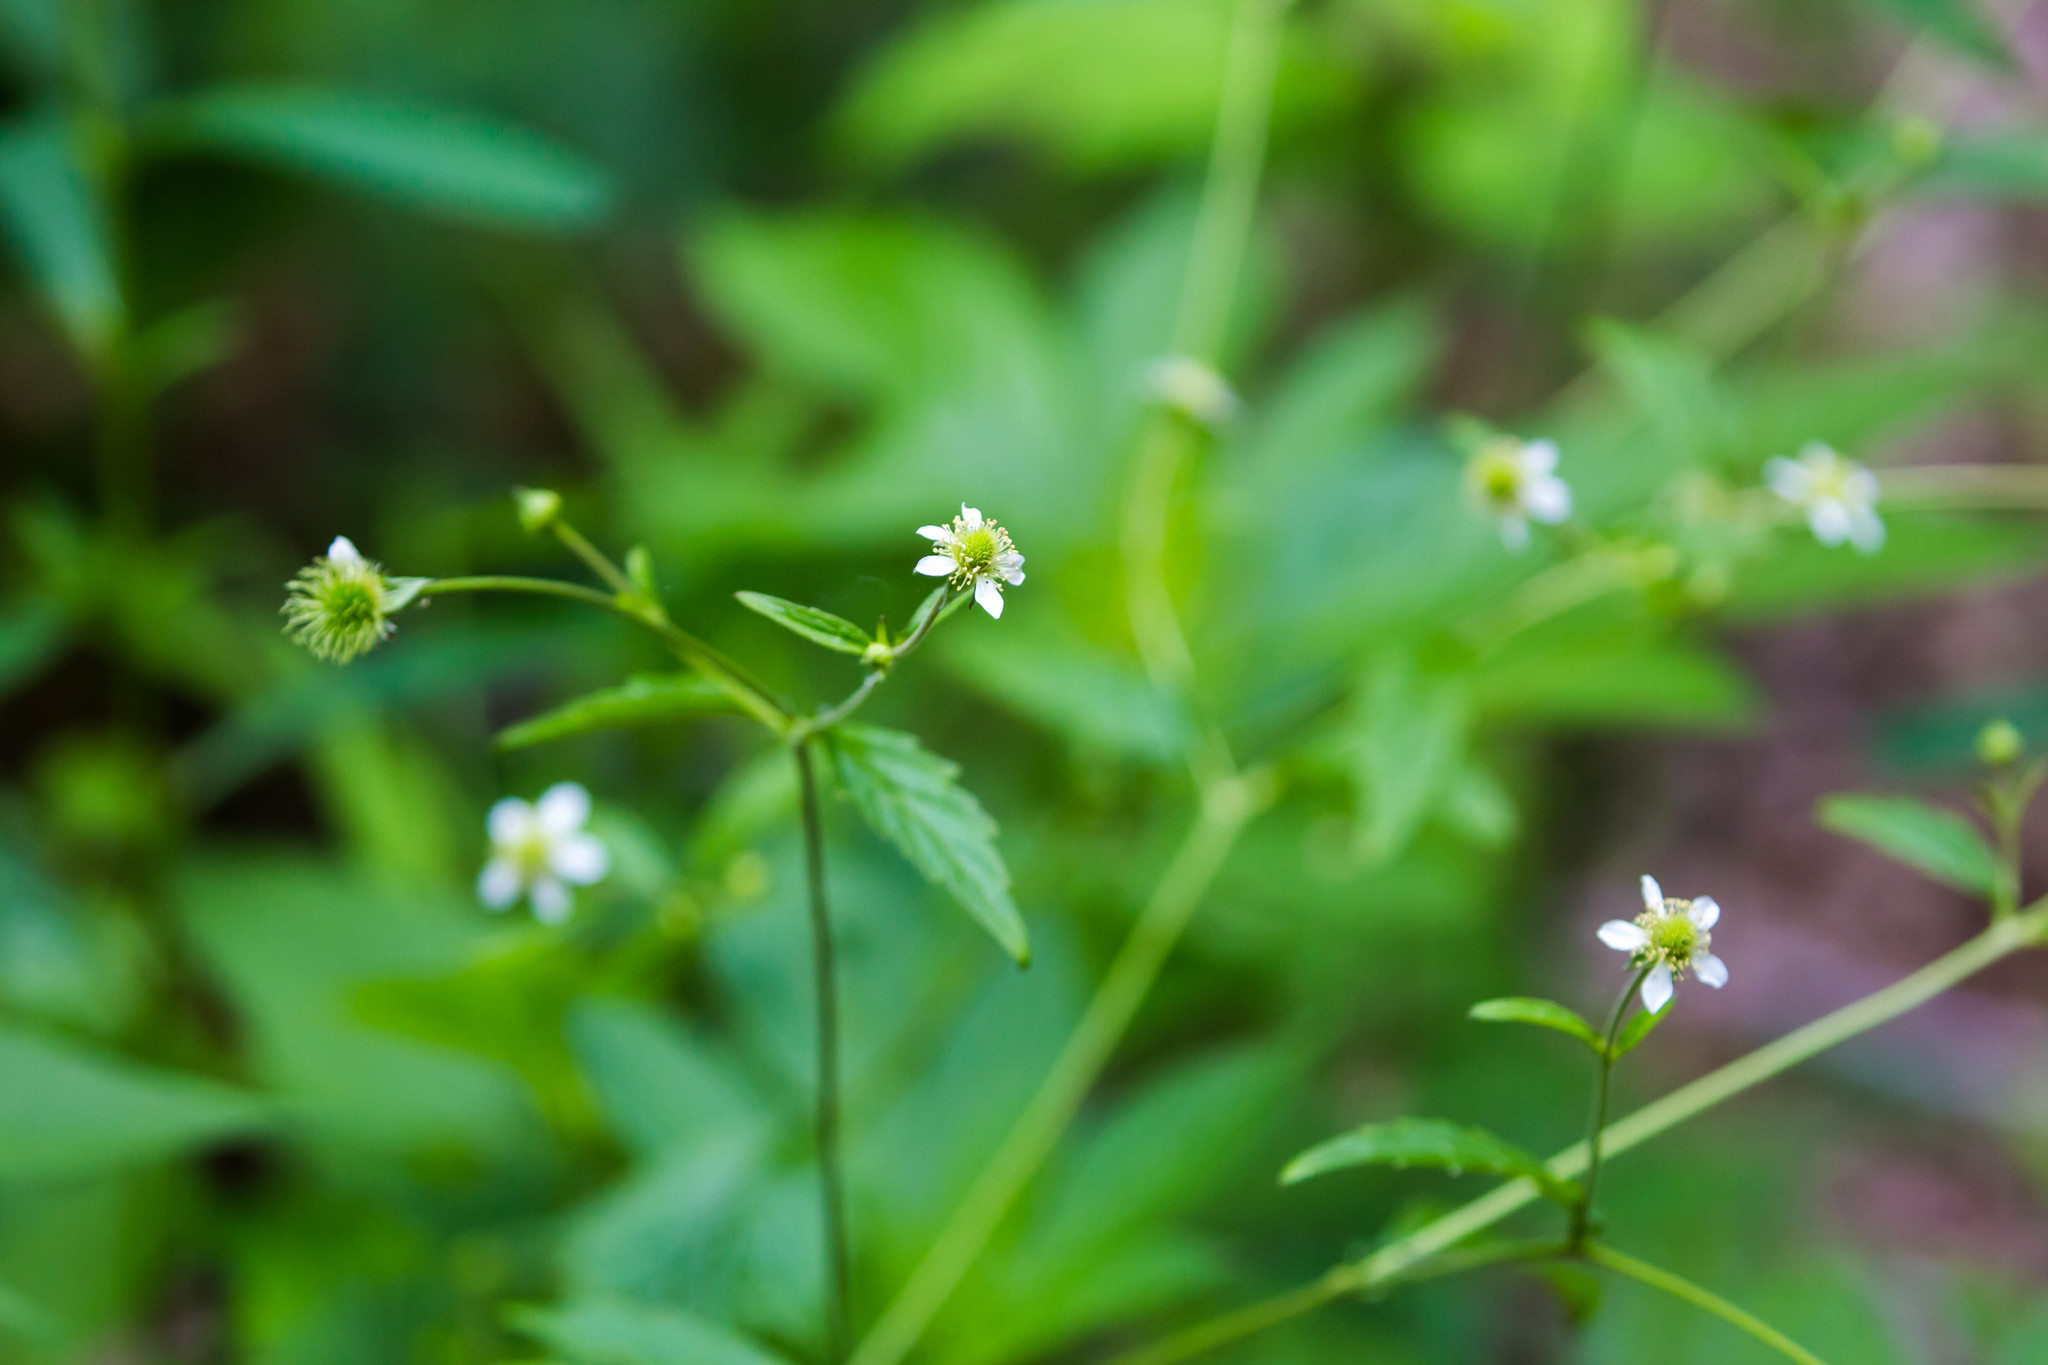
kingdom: Plantae
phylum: Tracheophyta
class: Magnoliopsida
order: Rosales
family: Rosaceae
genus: Geum
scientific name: Geum canadense
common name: White avens
